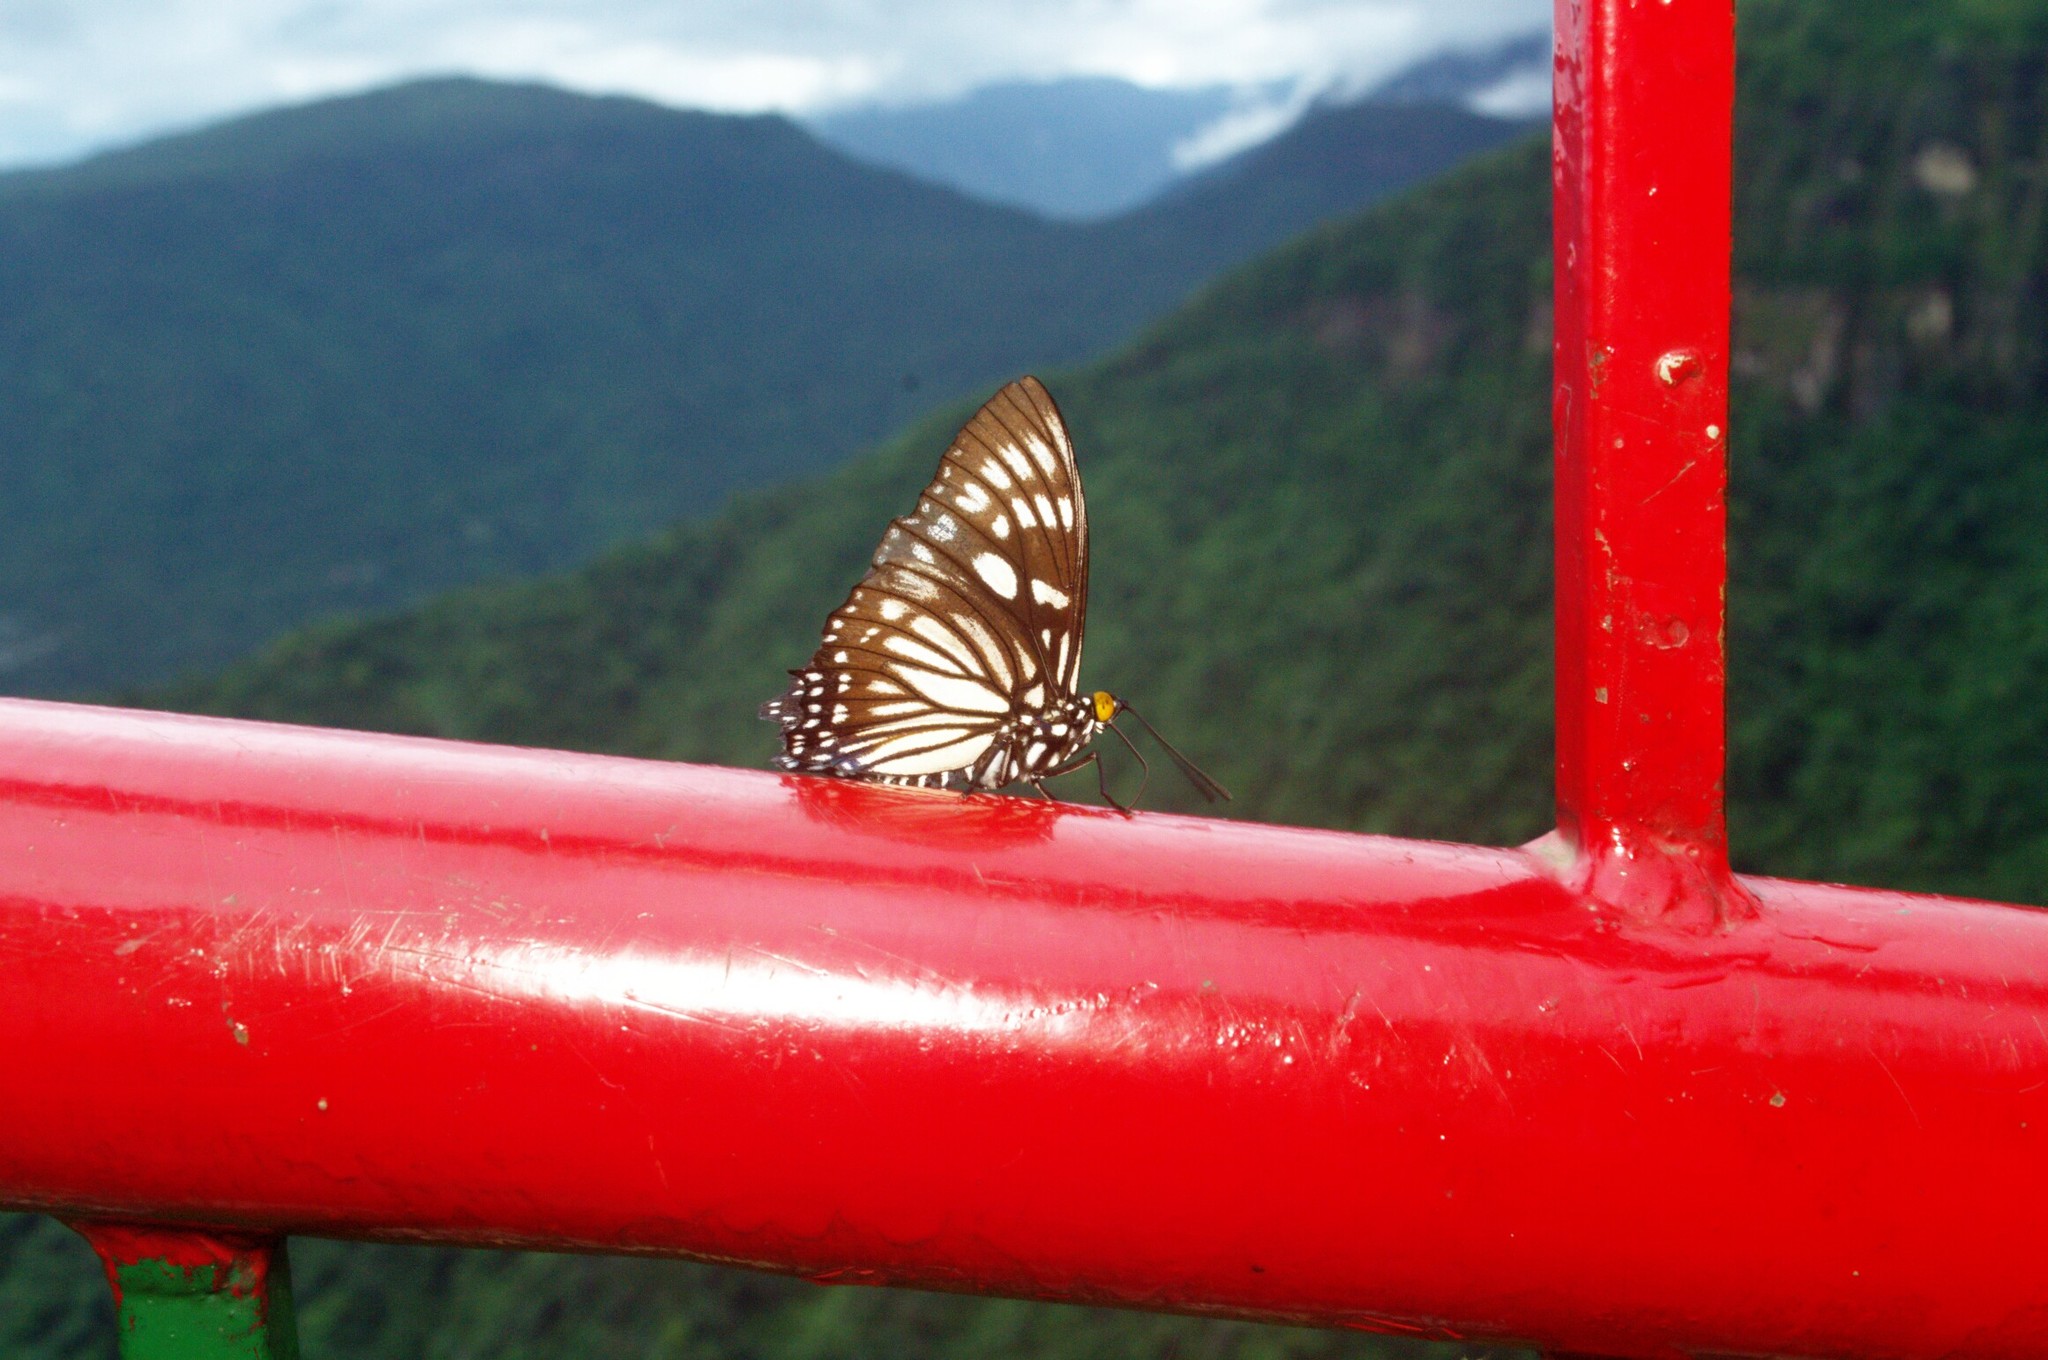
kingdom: Animalia
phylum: Arthropoda
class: Insecta
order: Lepidoptera
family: Nymphalidae
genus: Euripus
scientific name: Euripus nyctelius
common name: Courtesan
